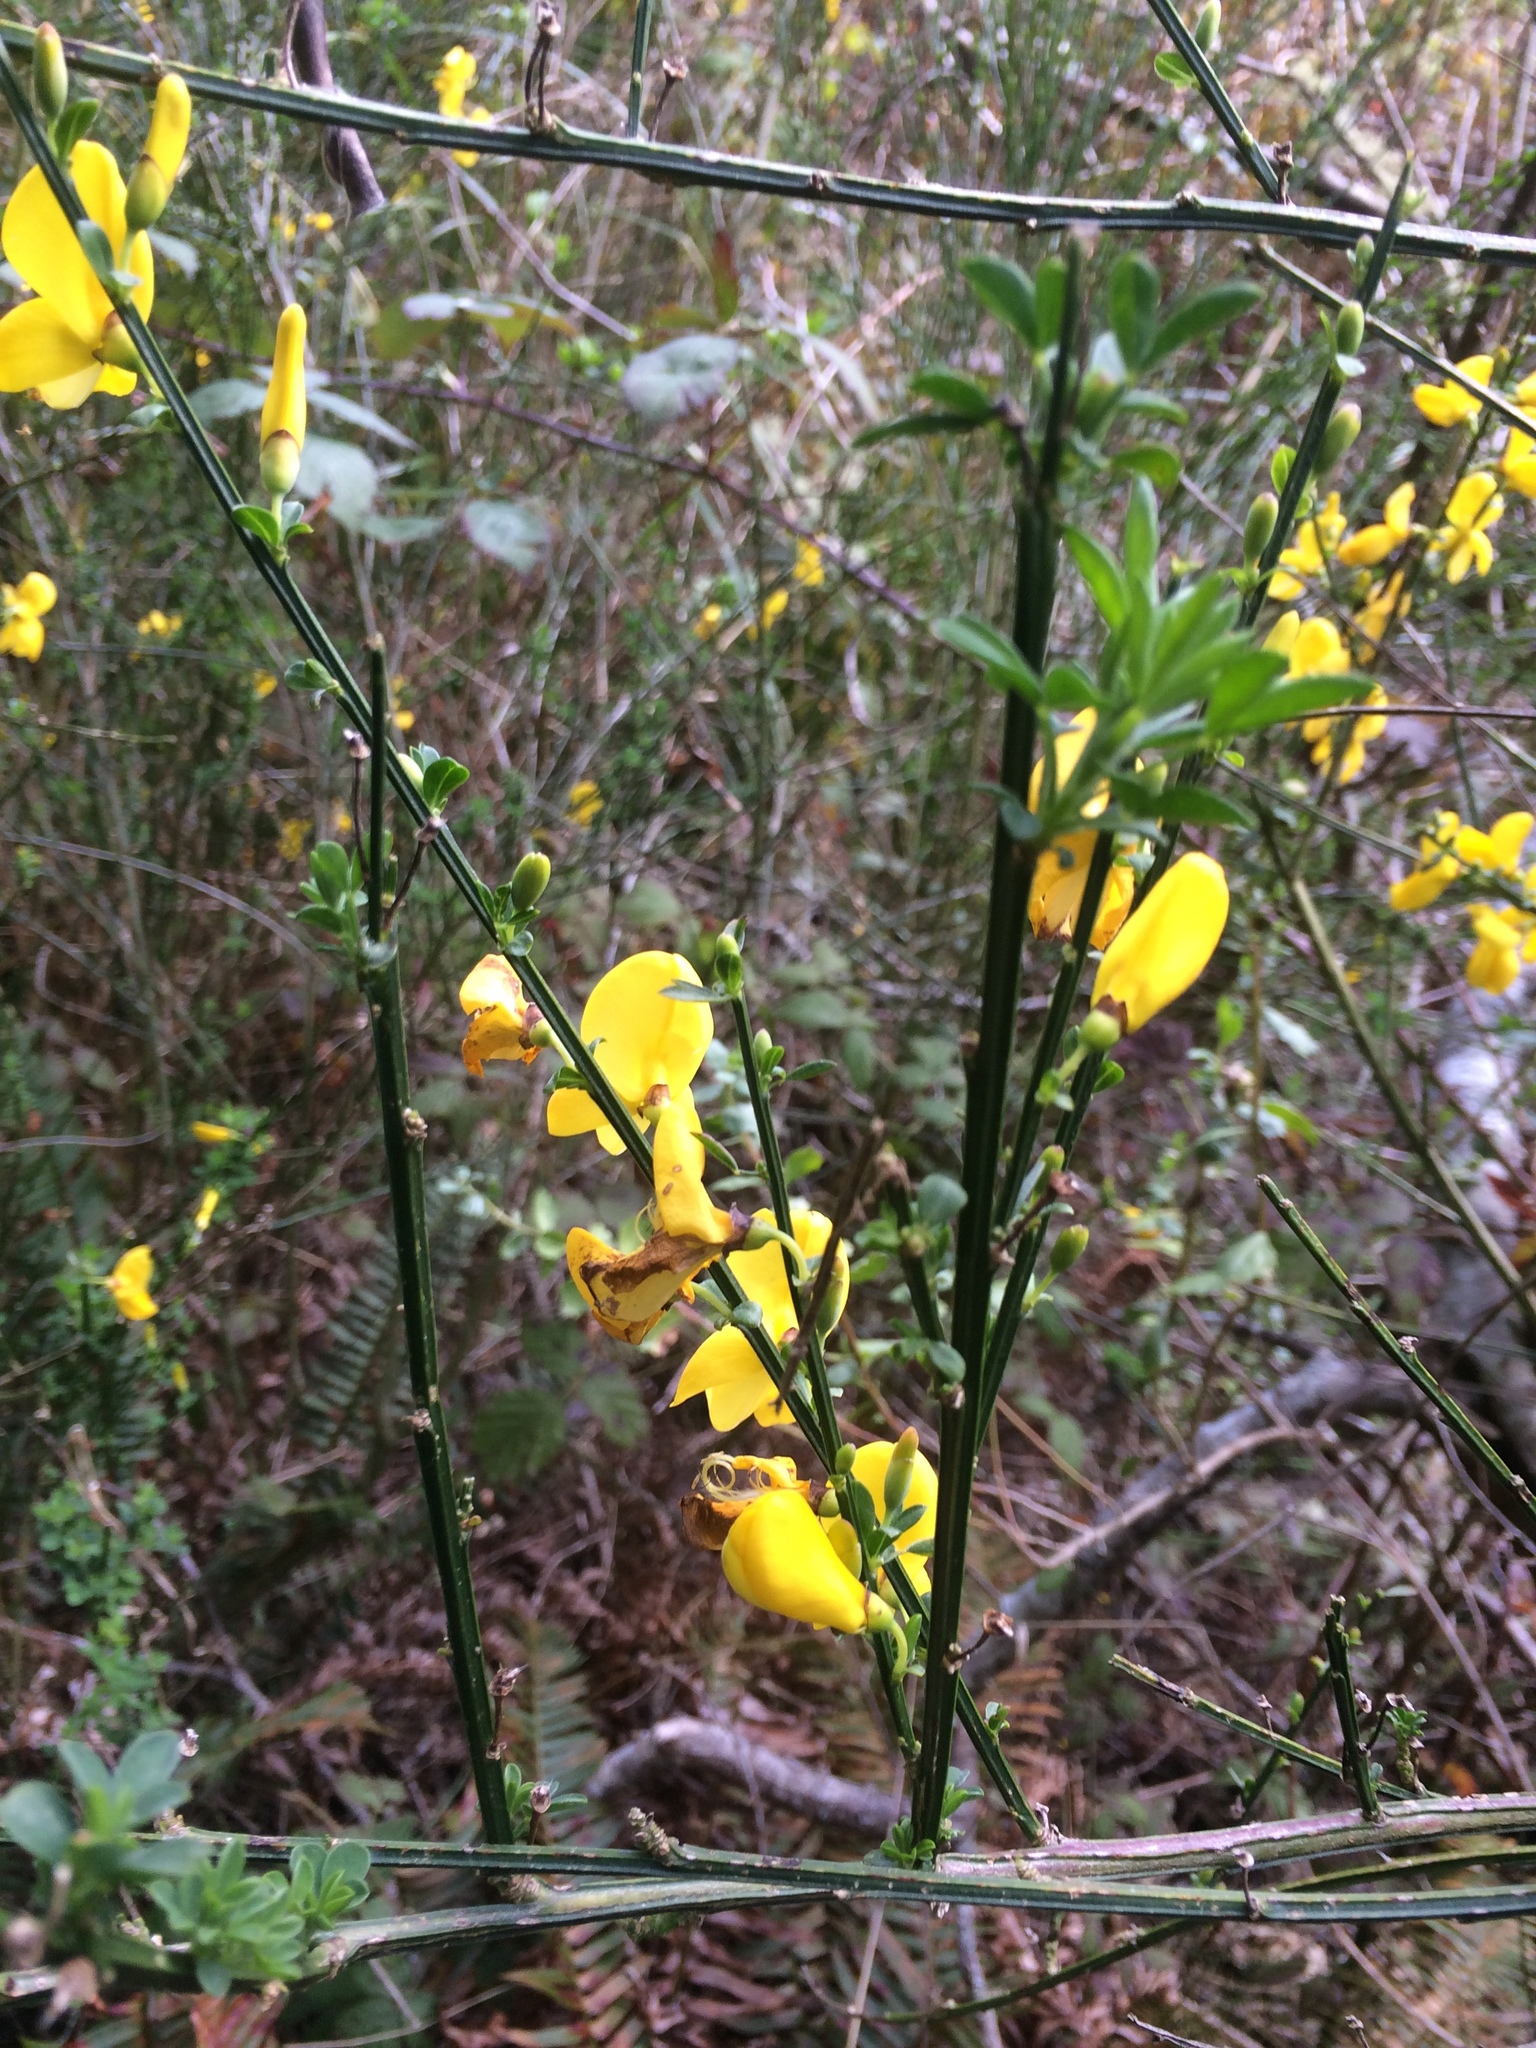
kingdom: Plantae
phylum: Tracheophyta
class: Magnoliopsida
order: Fabales
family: Fabaceae
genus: Cytisus
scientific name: Cytisus scoparius
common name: Scotch broom
